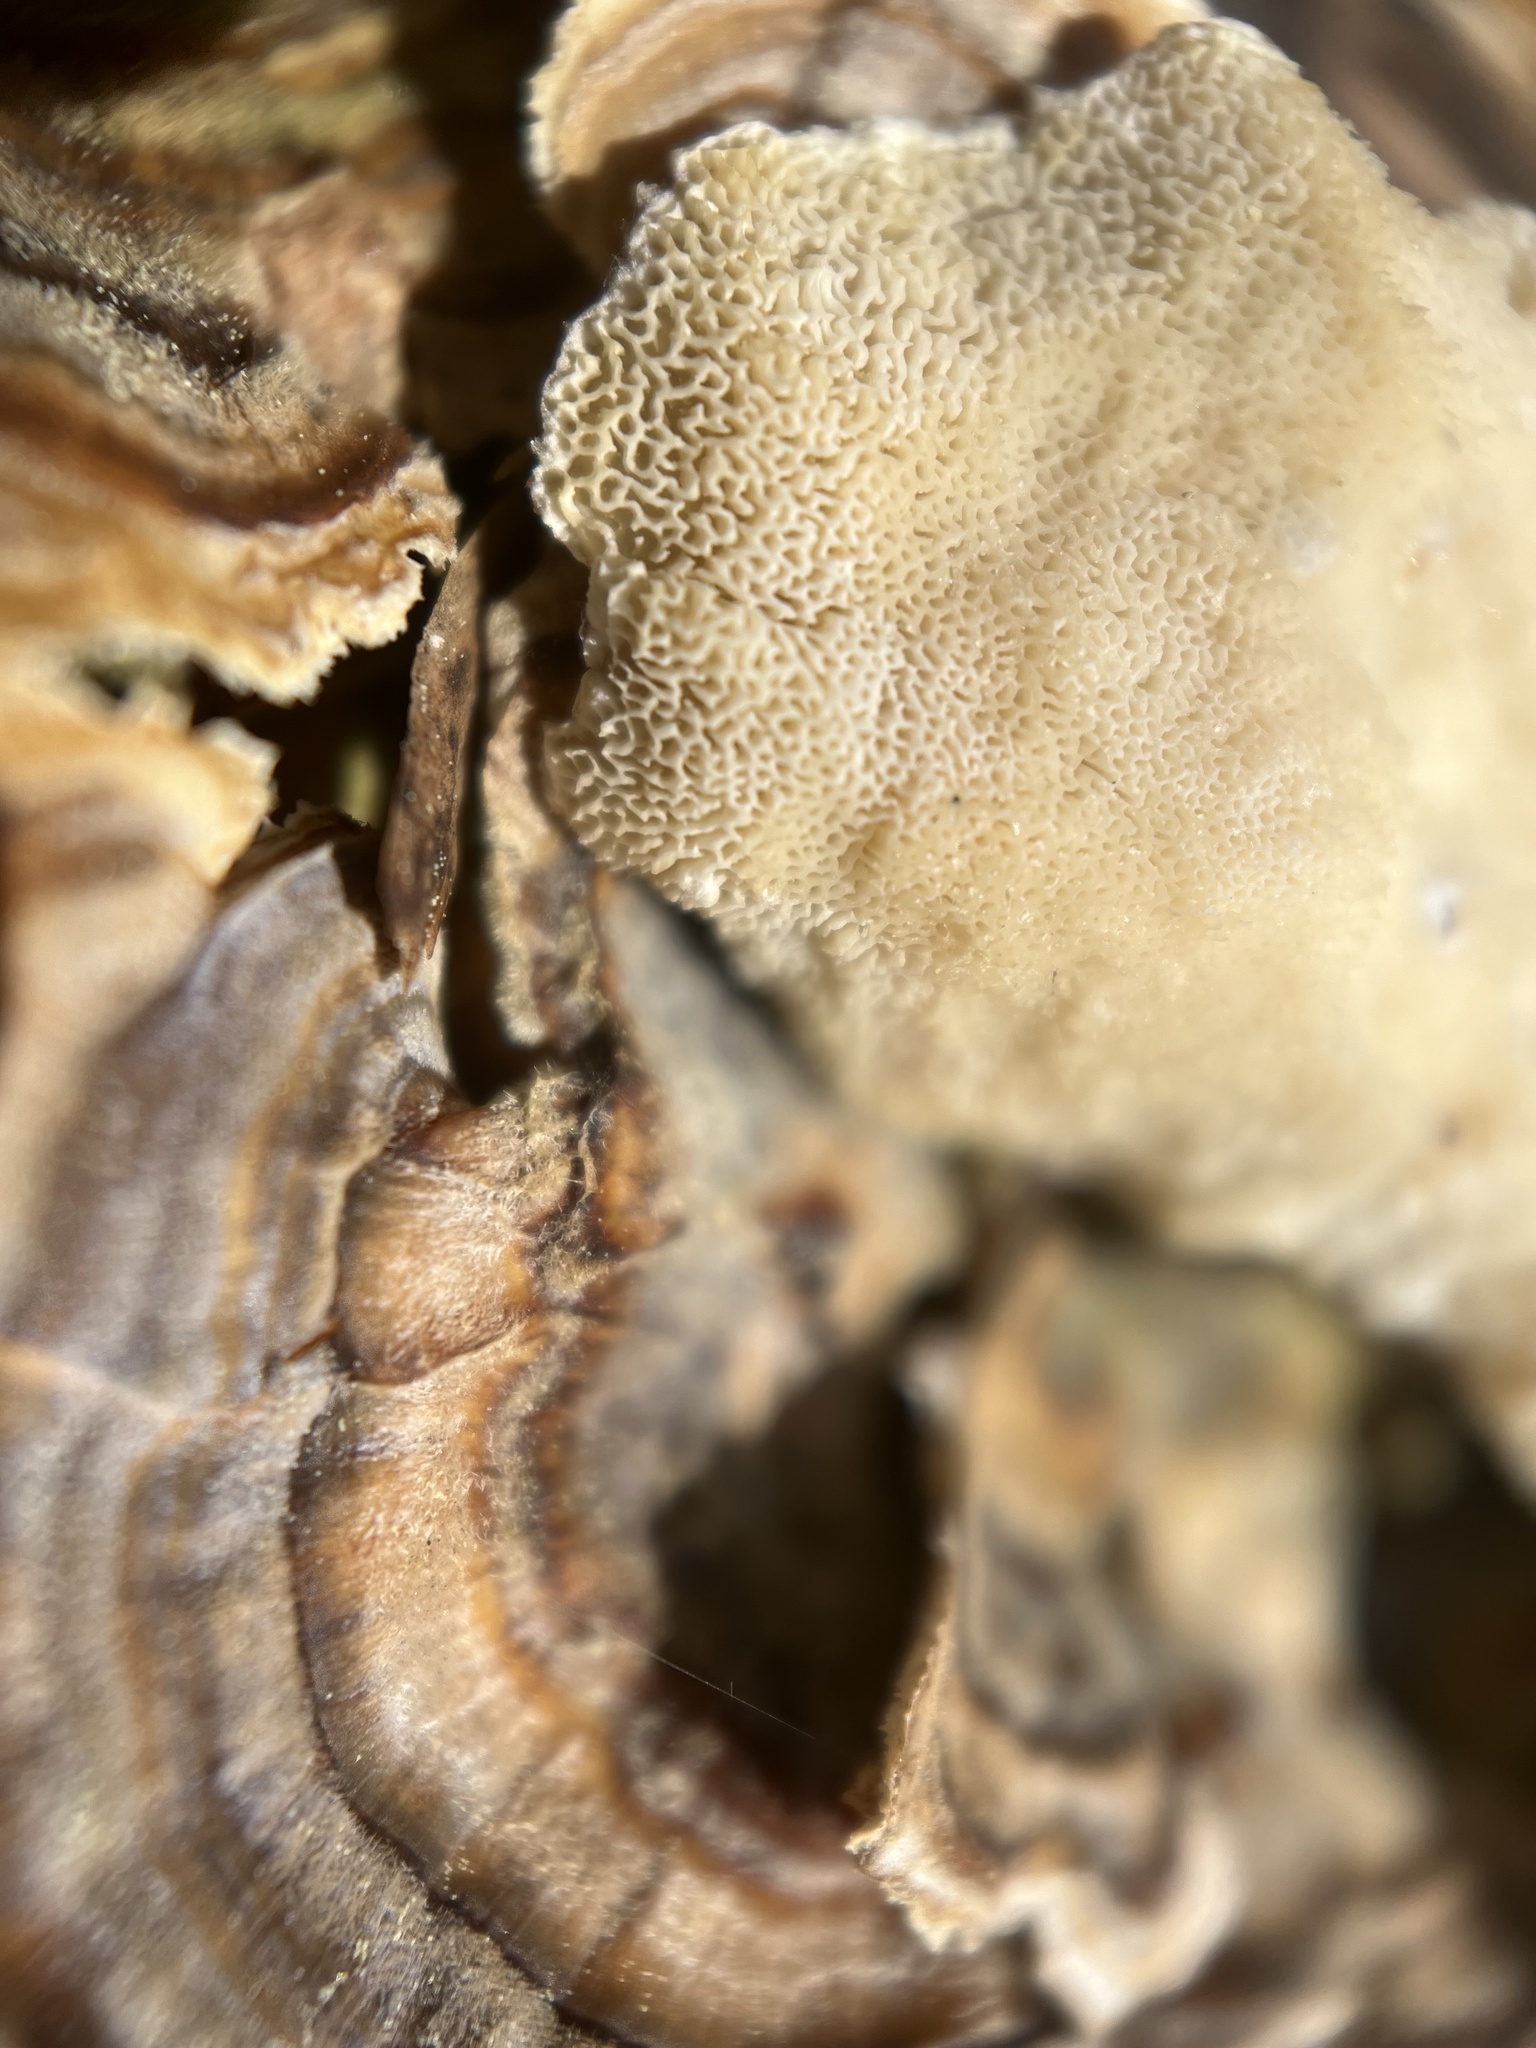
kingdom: Fungi
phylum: Basidiomycota
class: Agaricomycetes
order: Polyporales
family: Polyporaceae
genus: Trametes
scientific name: Trametes versicolor
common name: Turkeytail
